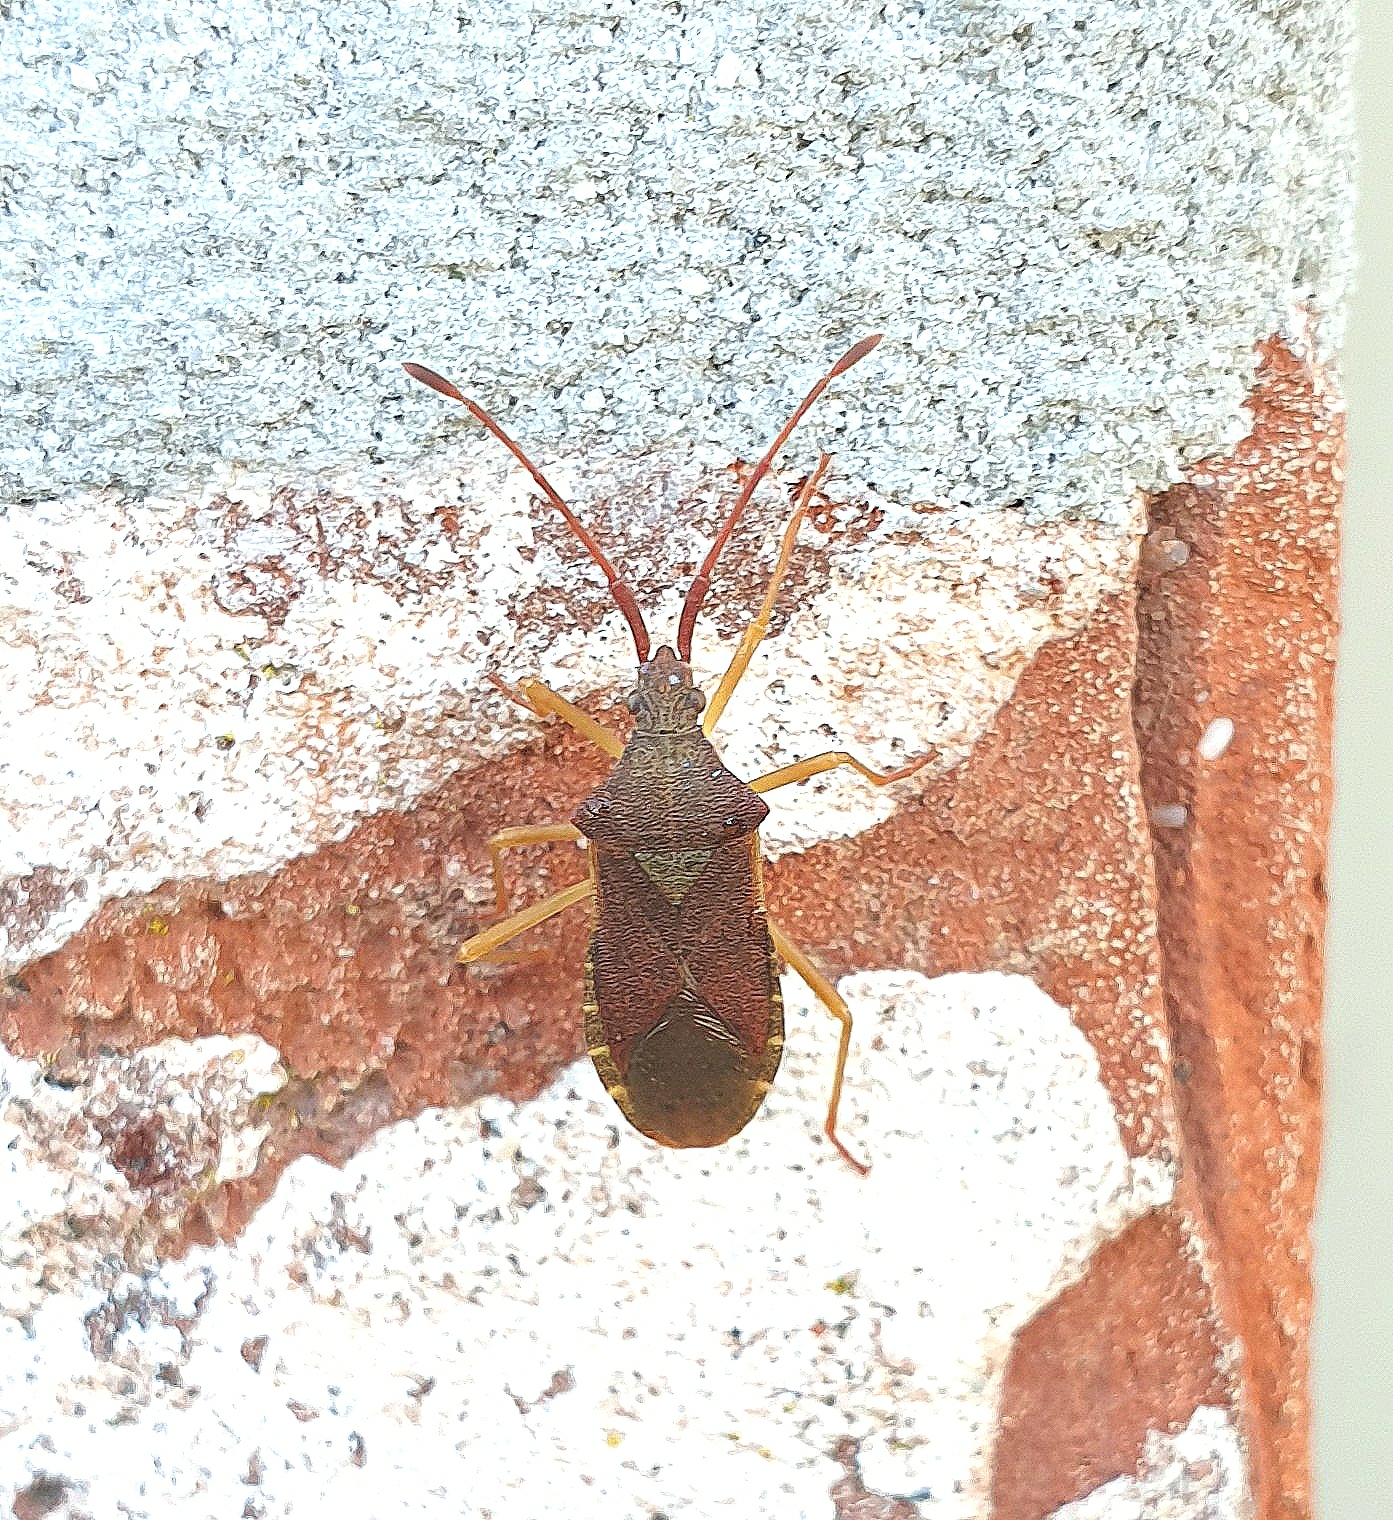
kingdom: Animalia
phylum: Arthropoda
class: Insecta
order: Hemiptera
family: Coreidae
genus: Gonocerus
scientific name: Gonocerus acuteangulatus
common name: Box bug
